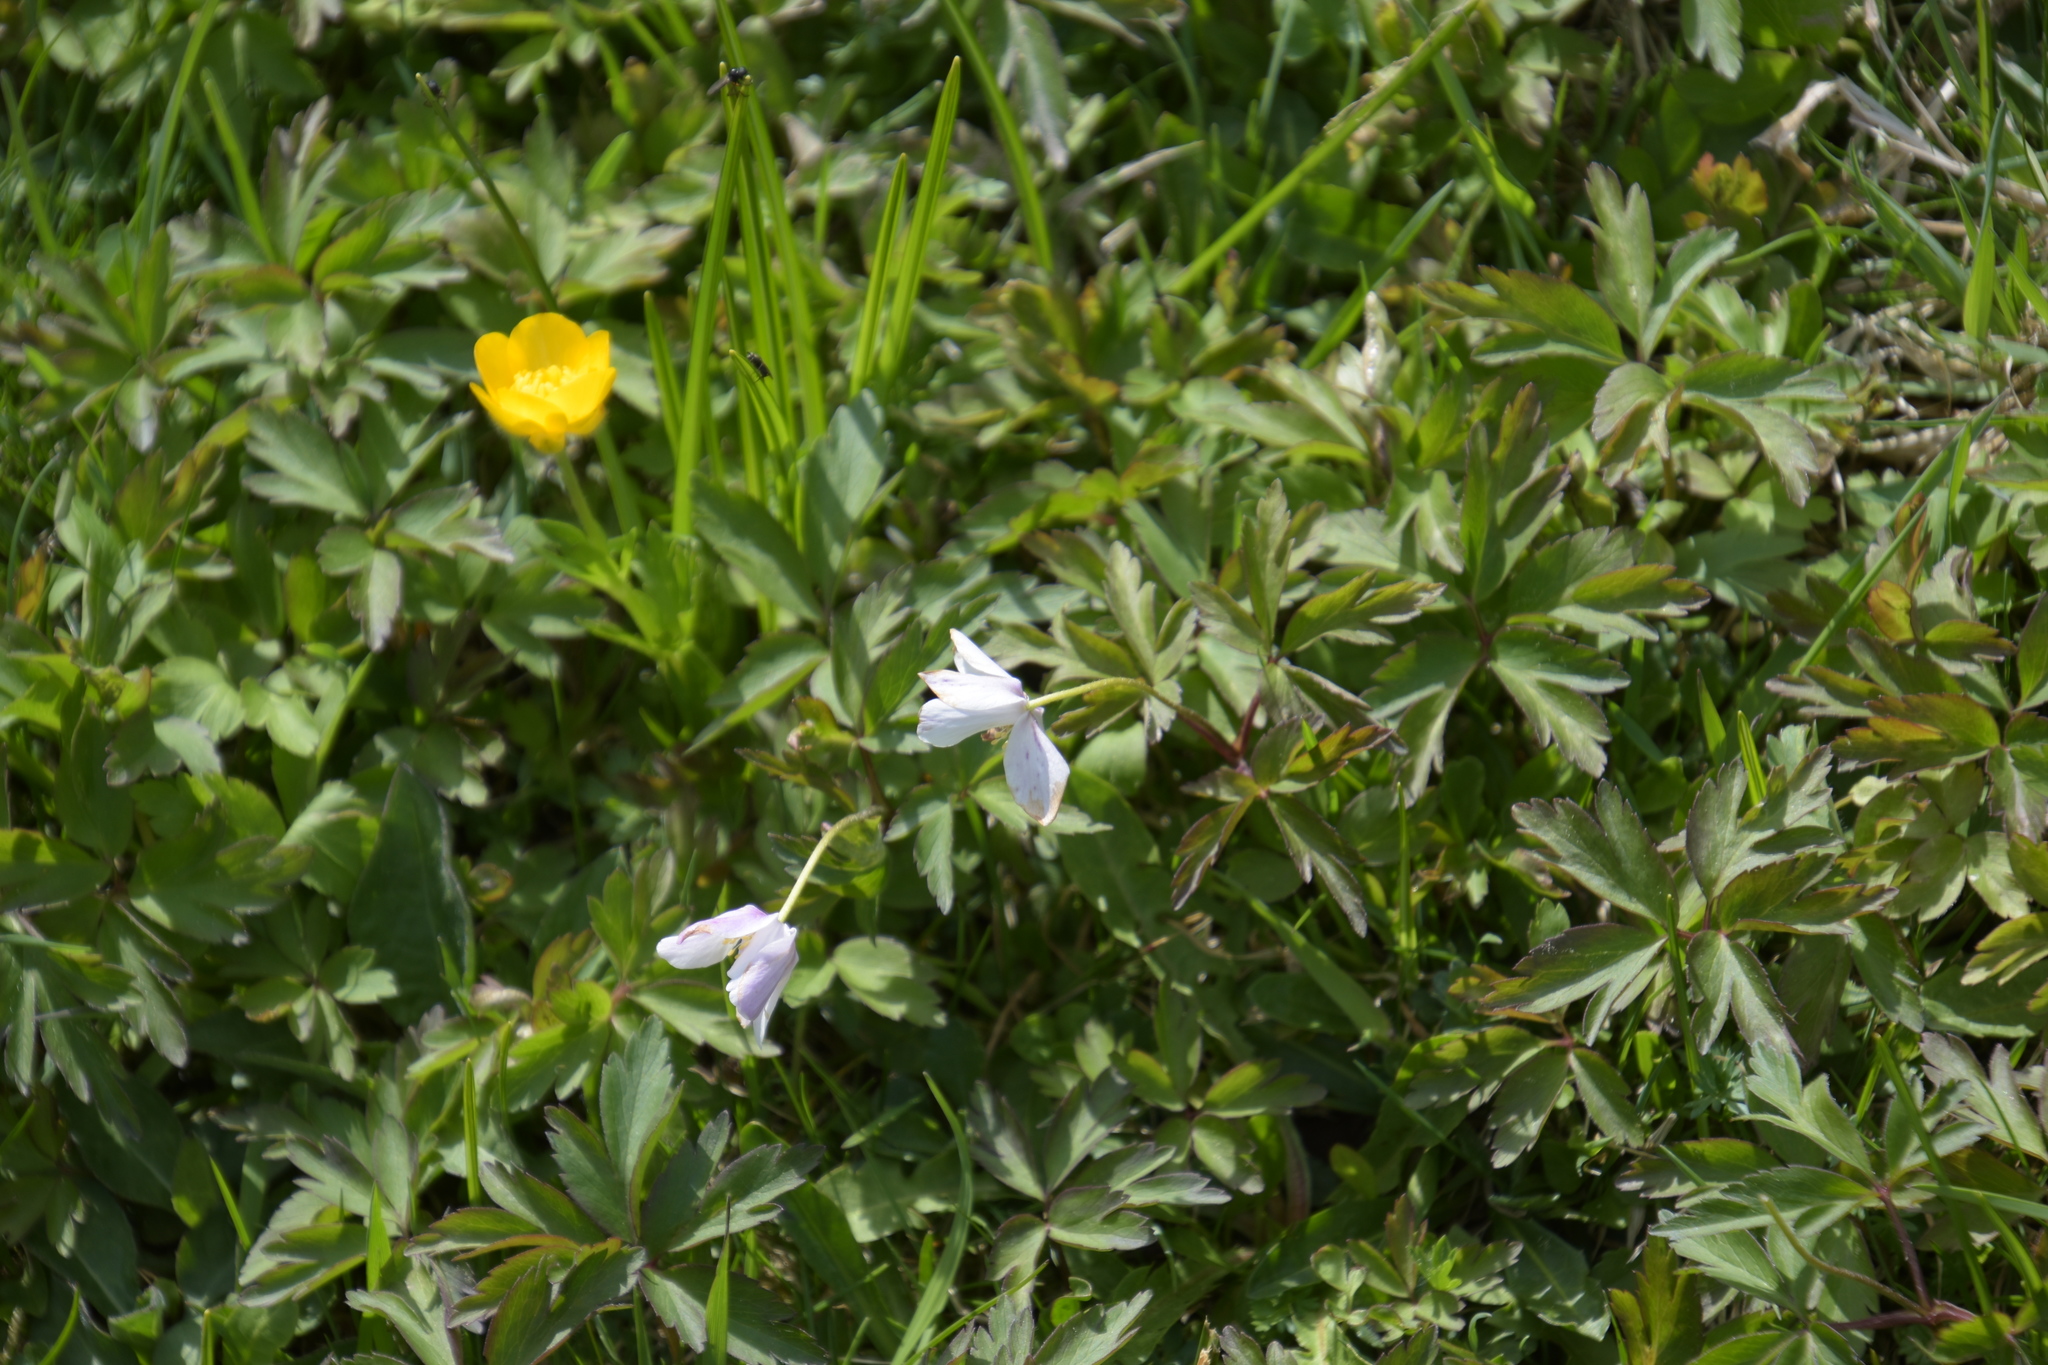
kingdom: Plantae
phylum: Tracheophyta
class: Magnoliopsida
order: Ranunculales
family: Ranunculaceae
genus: Anemone
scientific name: Anemone nemorosa
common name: Wood anemone
